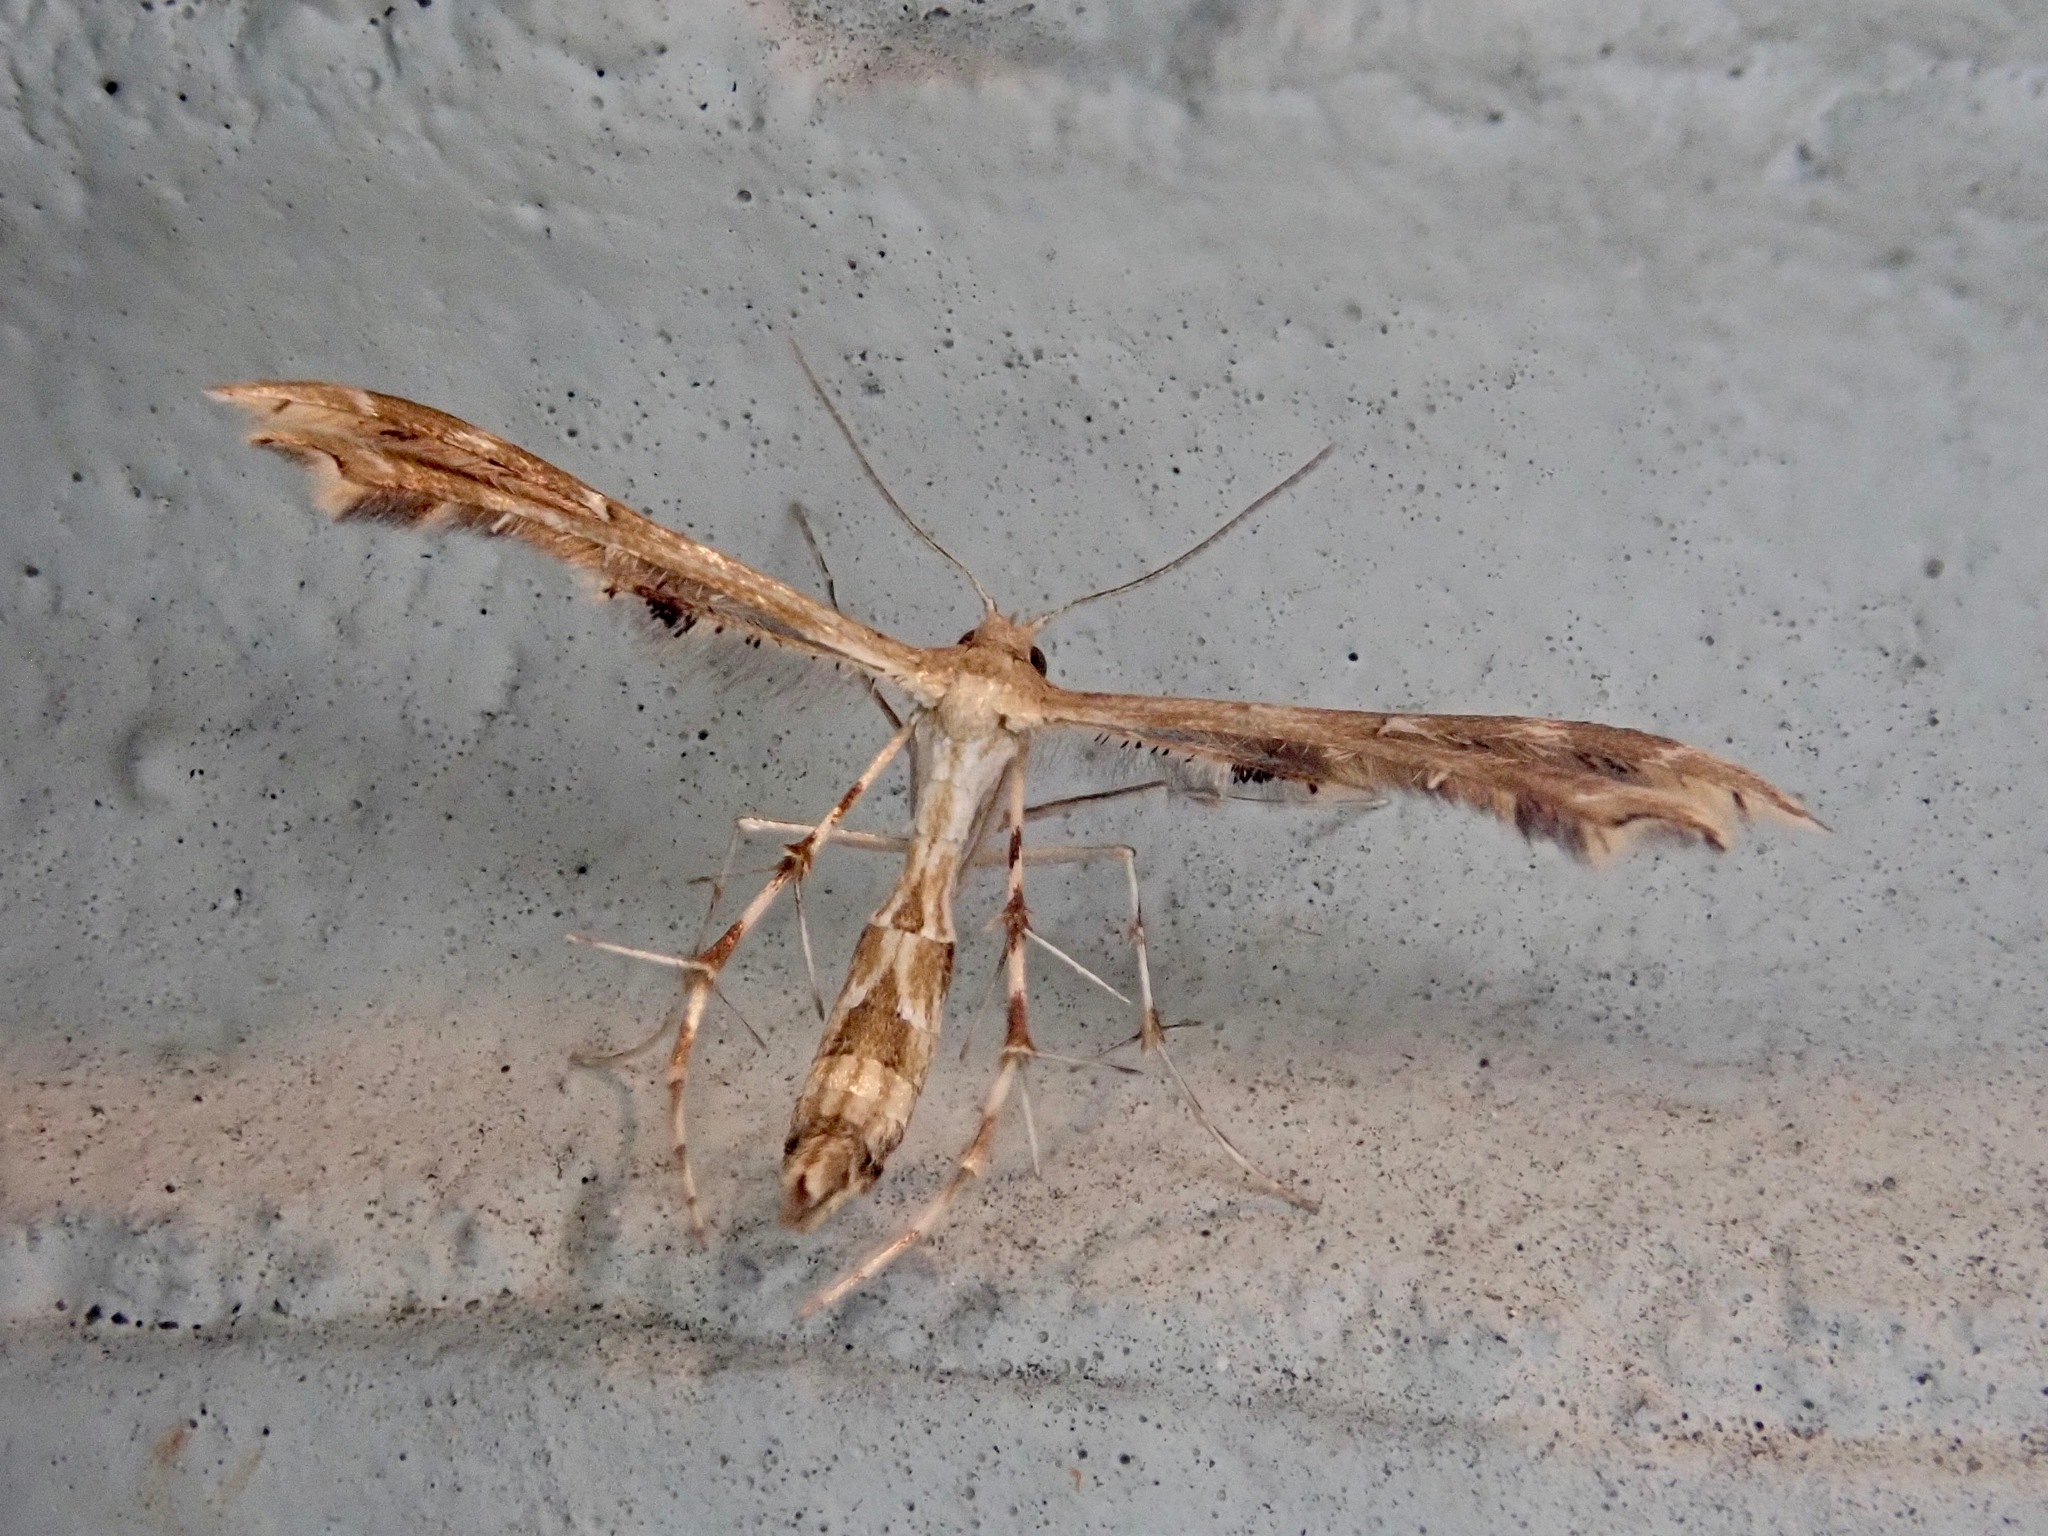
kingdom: Animalia
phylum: Arthropoda
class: Insecta
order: Lepidoptera
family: Pterophoridae
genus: Sphenarches
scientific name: Sphenarches anisodactylus
